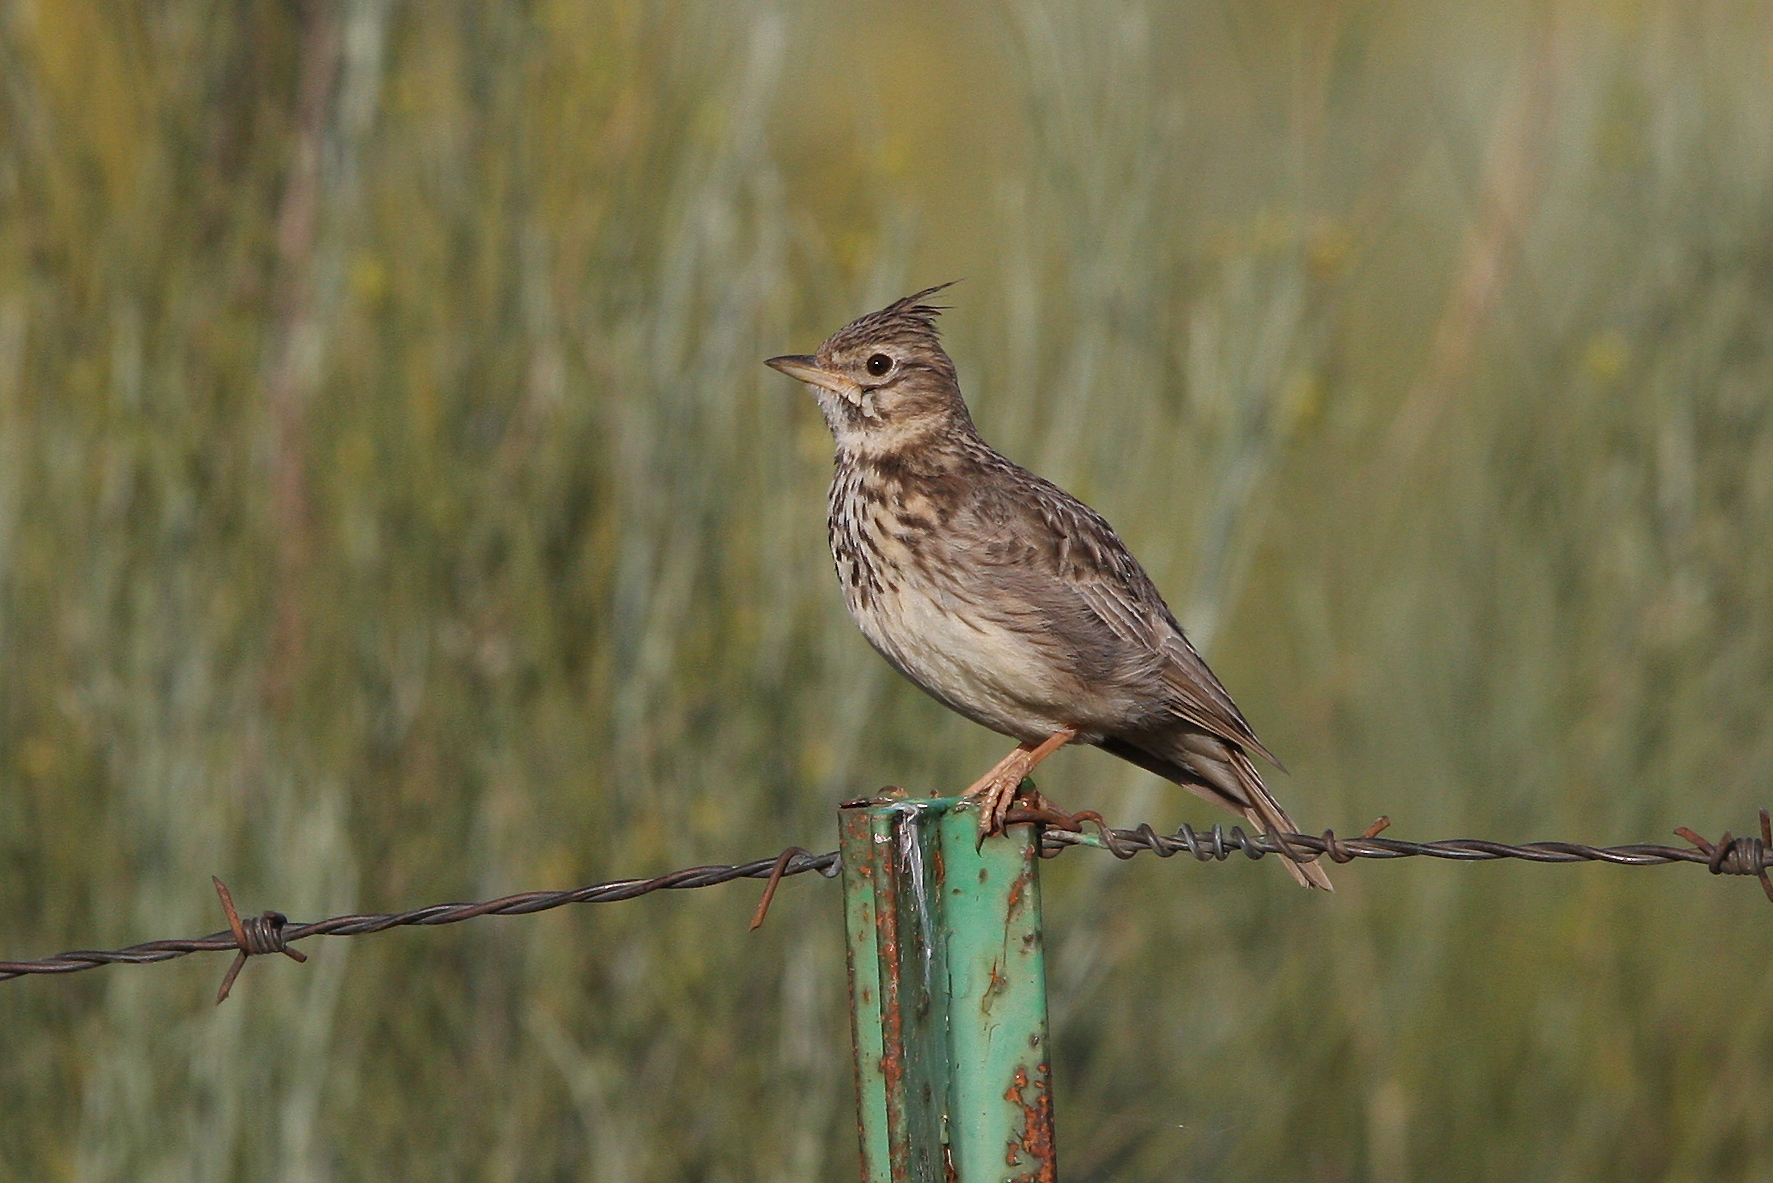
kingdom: Animalia
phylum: Chordata
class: Aves
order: Passeriformes
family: Alaudidae
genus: Galerida
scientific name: Galerida theklae
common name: Thekla lark
